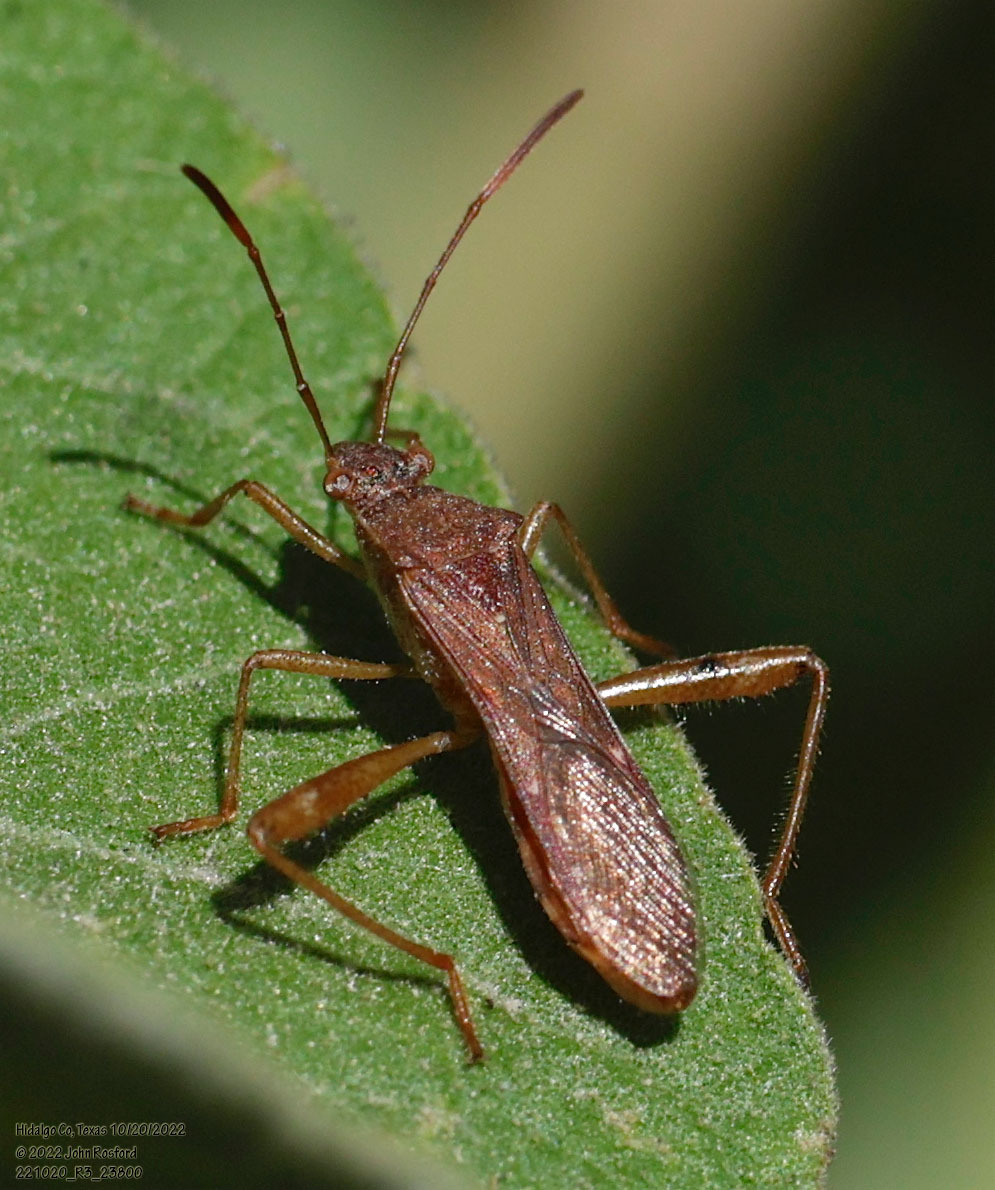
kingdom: Animalia
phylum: Arthropoda
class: Insecta
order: Hemiptera
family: Alydidae
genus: Burtinus
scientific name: Burtinus notatipennis
